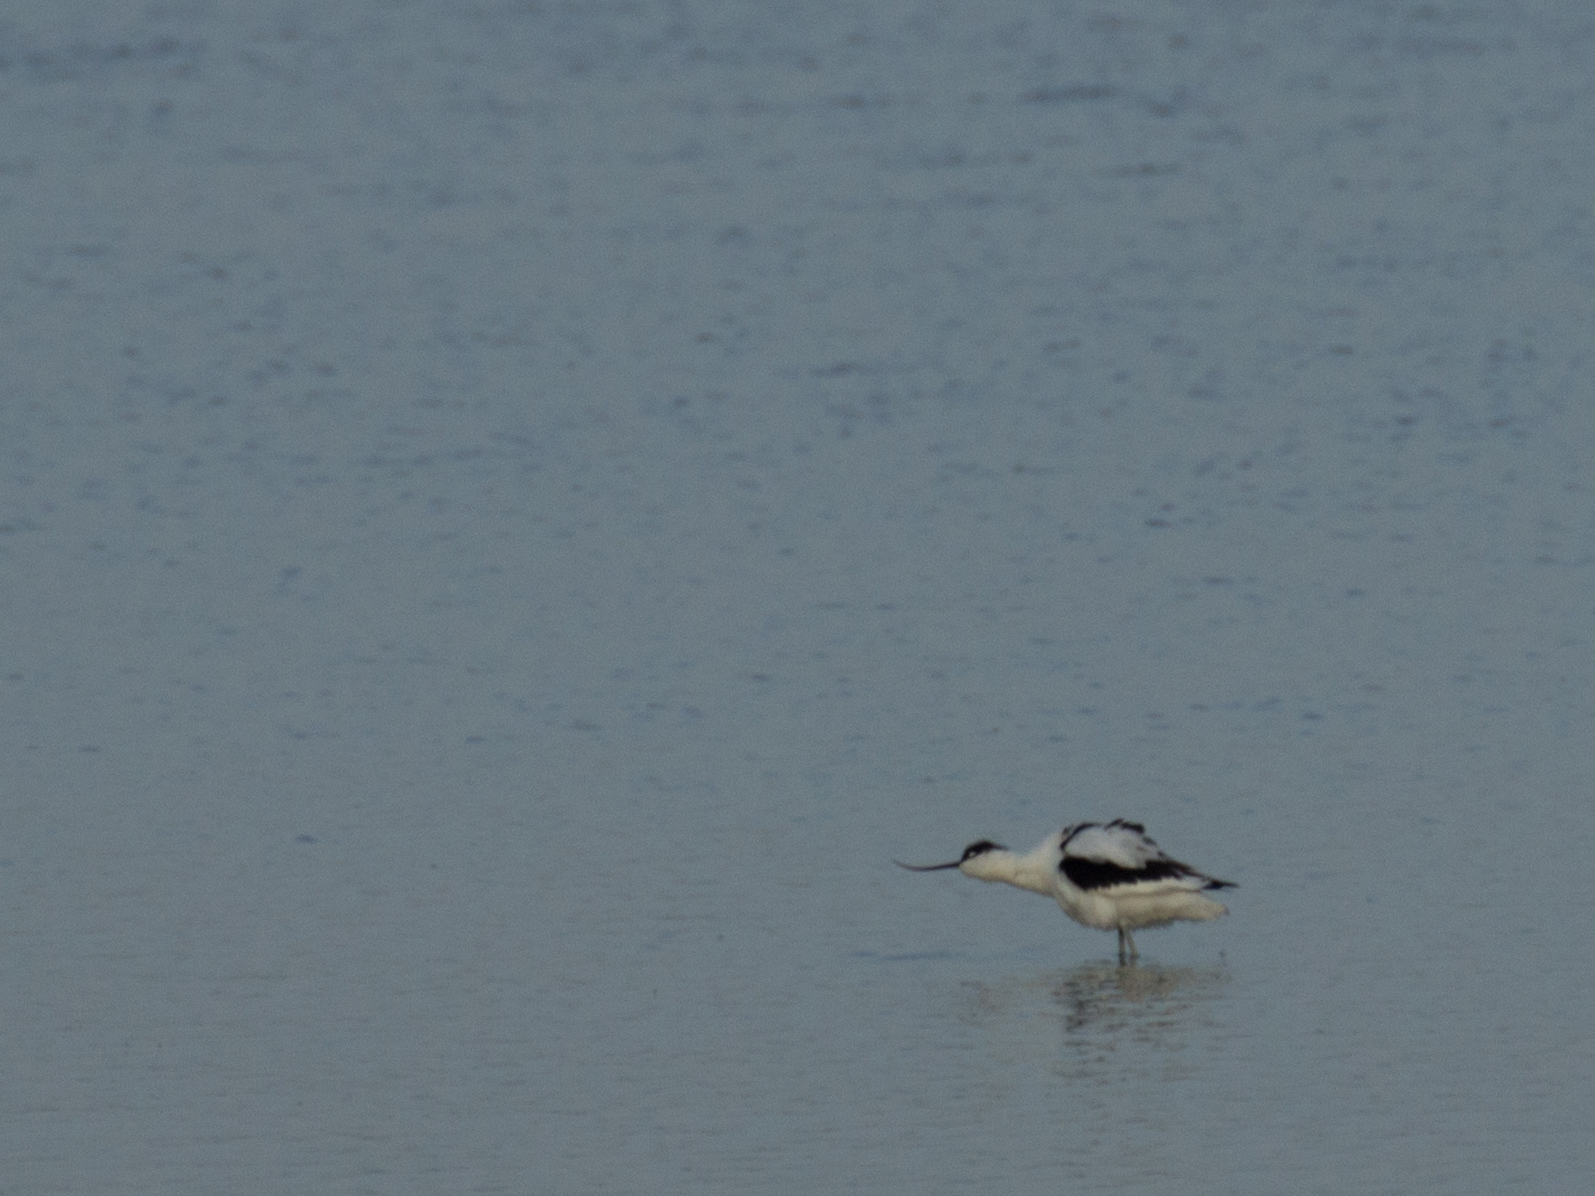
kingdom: Animalia
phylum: Chordata
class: Aves
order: Charadriiformes
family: Recurvirostridae
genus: Recurvirostra
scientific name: Recurvirostra avosetta
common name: Pied avocet
